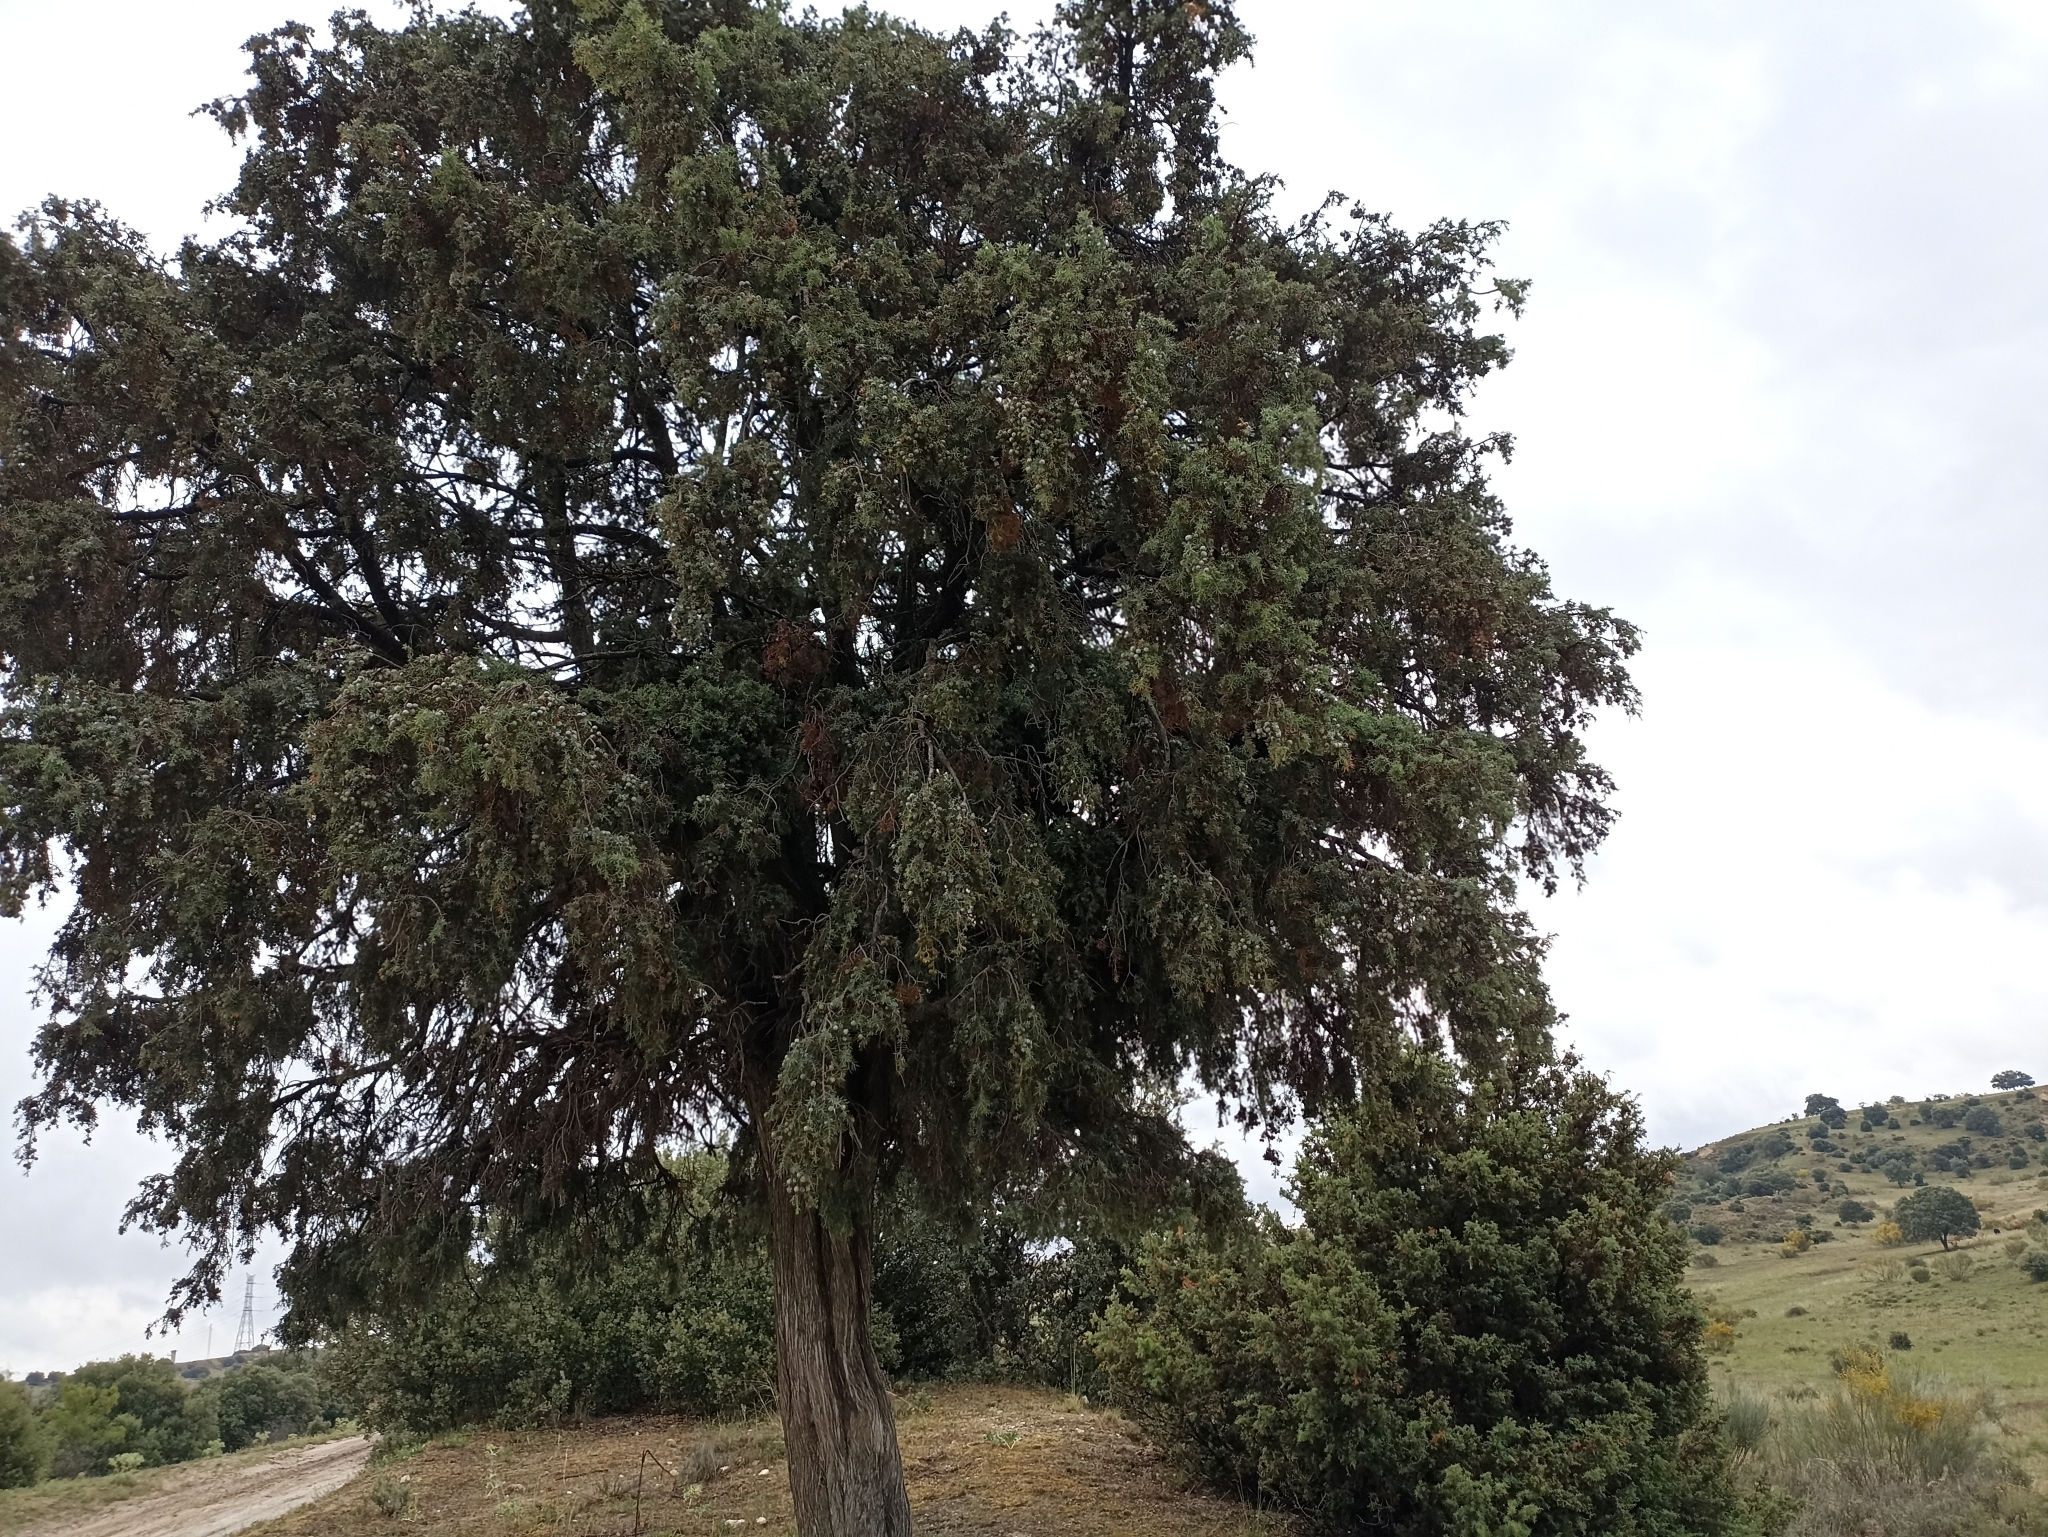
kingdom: Plantae
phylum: Tracheophyta
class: Pinopsida
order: Pinales
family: Cupressaceae
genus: Juniperus
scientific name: Juniperus oxycedrus
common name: Prickly juniper
